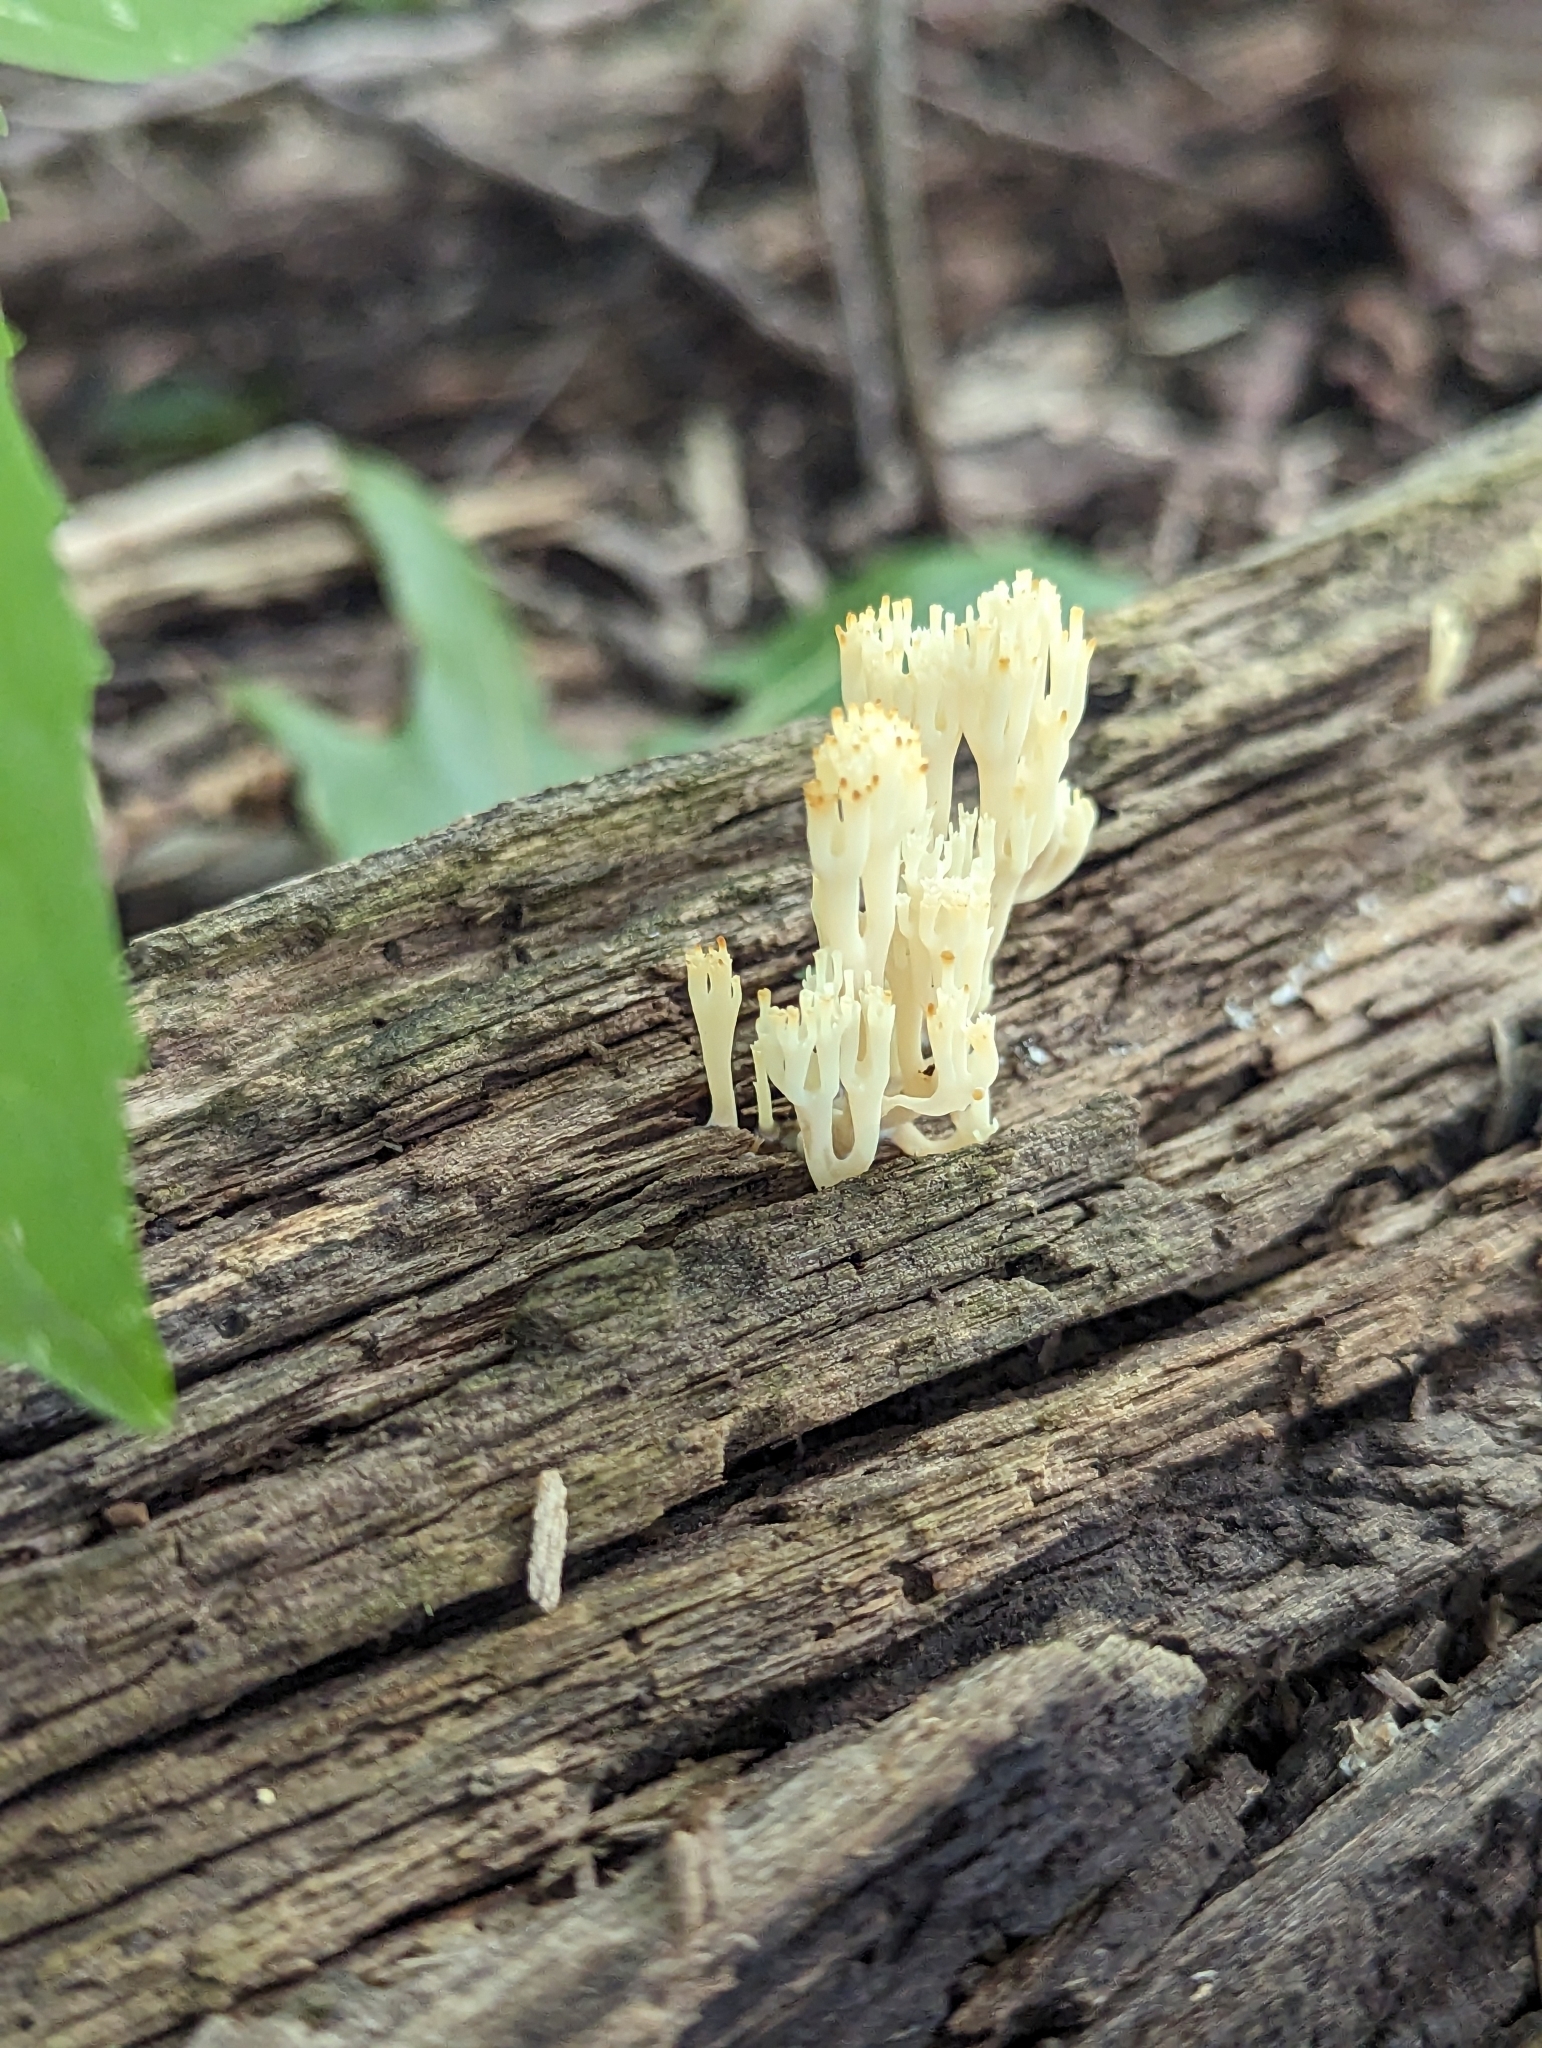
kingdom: Fungi
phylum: Basidiomycota
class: Agaricomycetes
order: Russulales
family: Auriscalpiaceae
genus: Artomyces
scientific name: Artomyces pyxidatus
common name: Crown-tipped coral fungus
